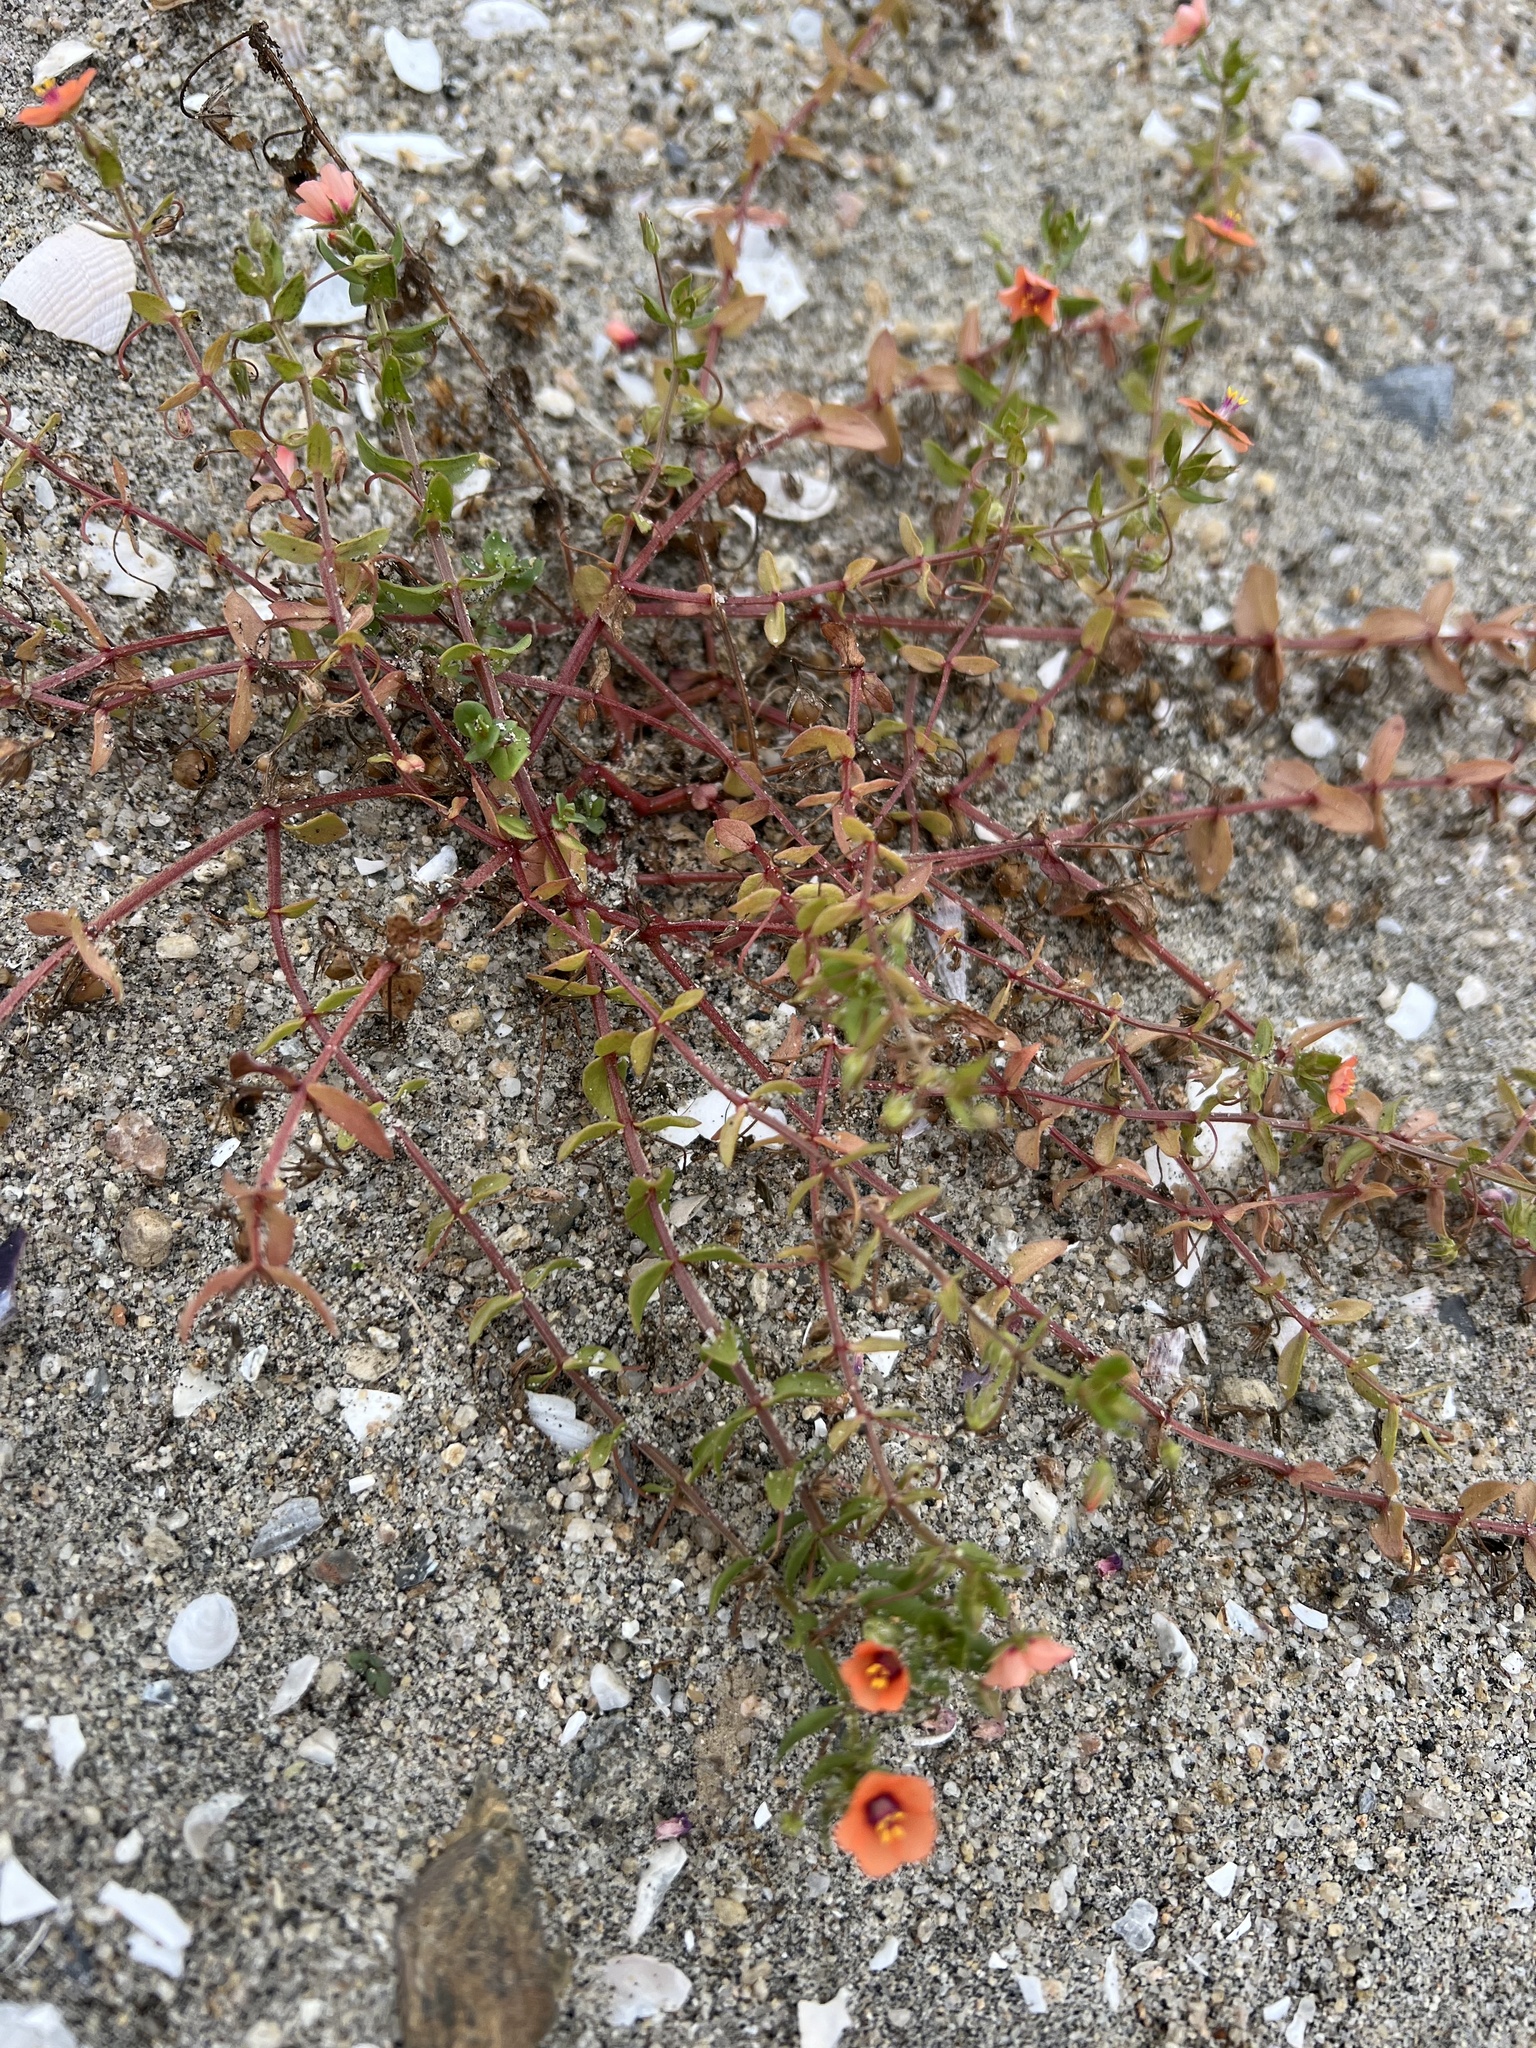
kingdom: Plantae
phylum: Tracheophyta
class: Magnoliopsida
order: Ericales
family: Primulaceae
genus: Lysimachia
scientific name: Lysimachia arvensis
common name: Scarlet pimpernel
